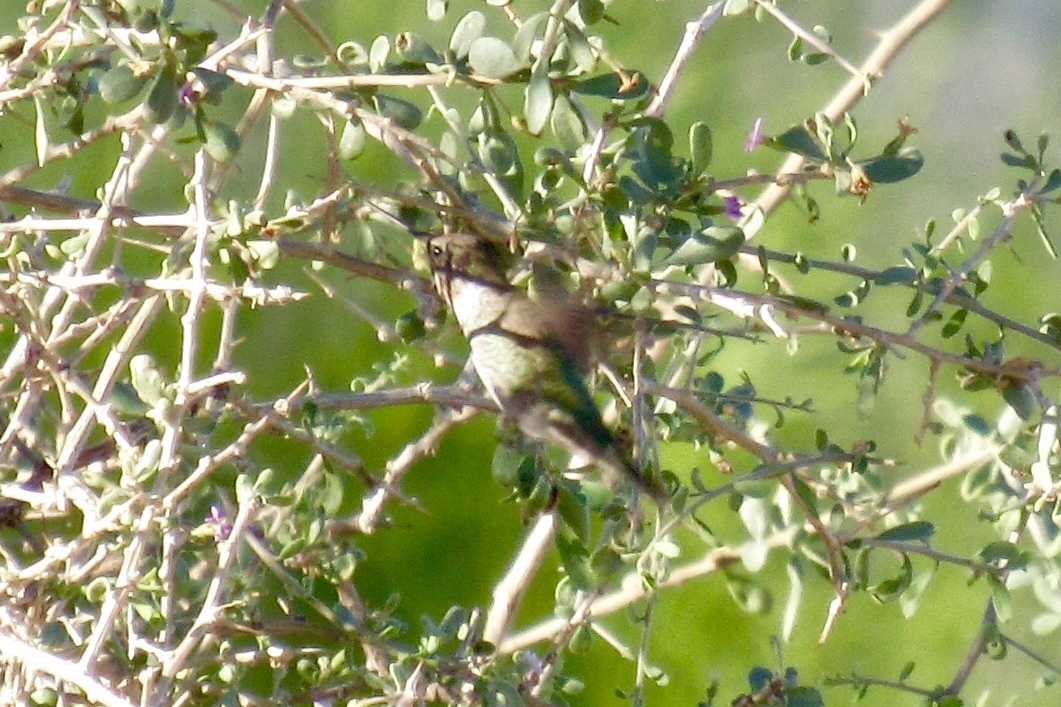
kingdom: Animalia
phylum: Chordata
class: Aves
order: Apodiformes
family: Trochilidae
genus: Calypte
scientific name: Calypte anna
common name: Anna's hummingbird
